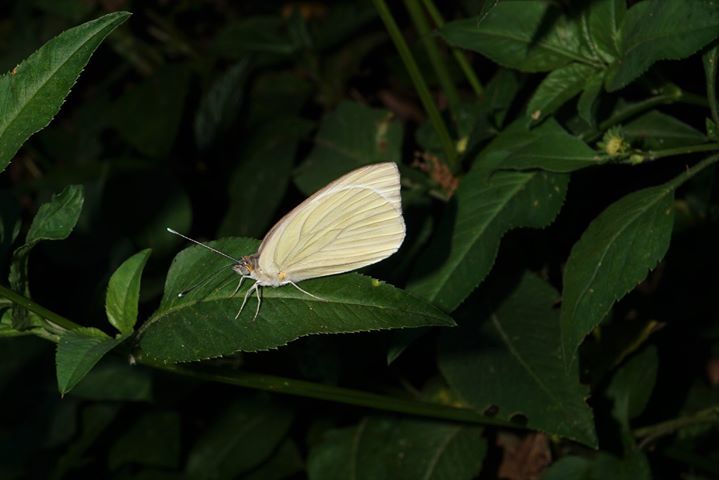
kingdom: Animalia
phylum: Arthropoda
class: Insecta
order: Lepidoptera
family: Pieridae
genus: Ascia
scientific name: Ascia monuste
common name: Great southern white
